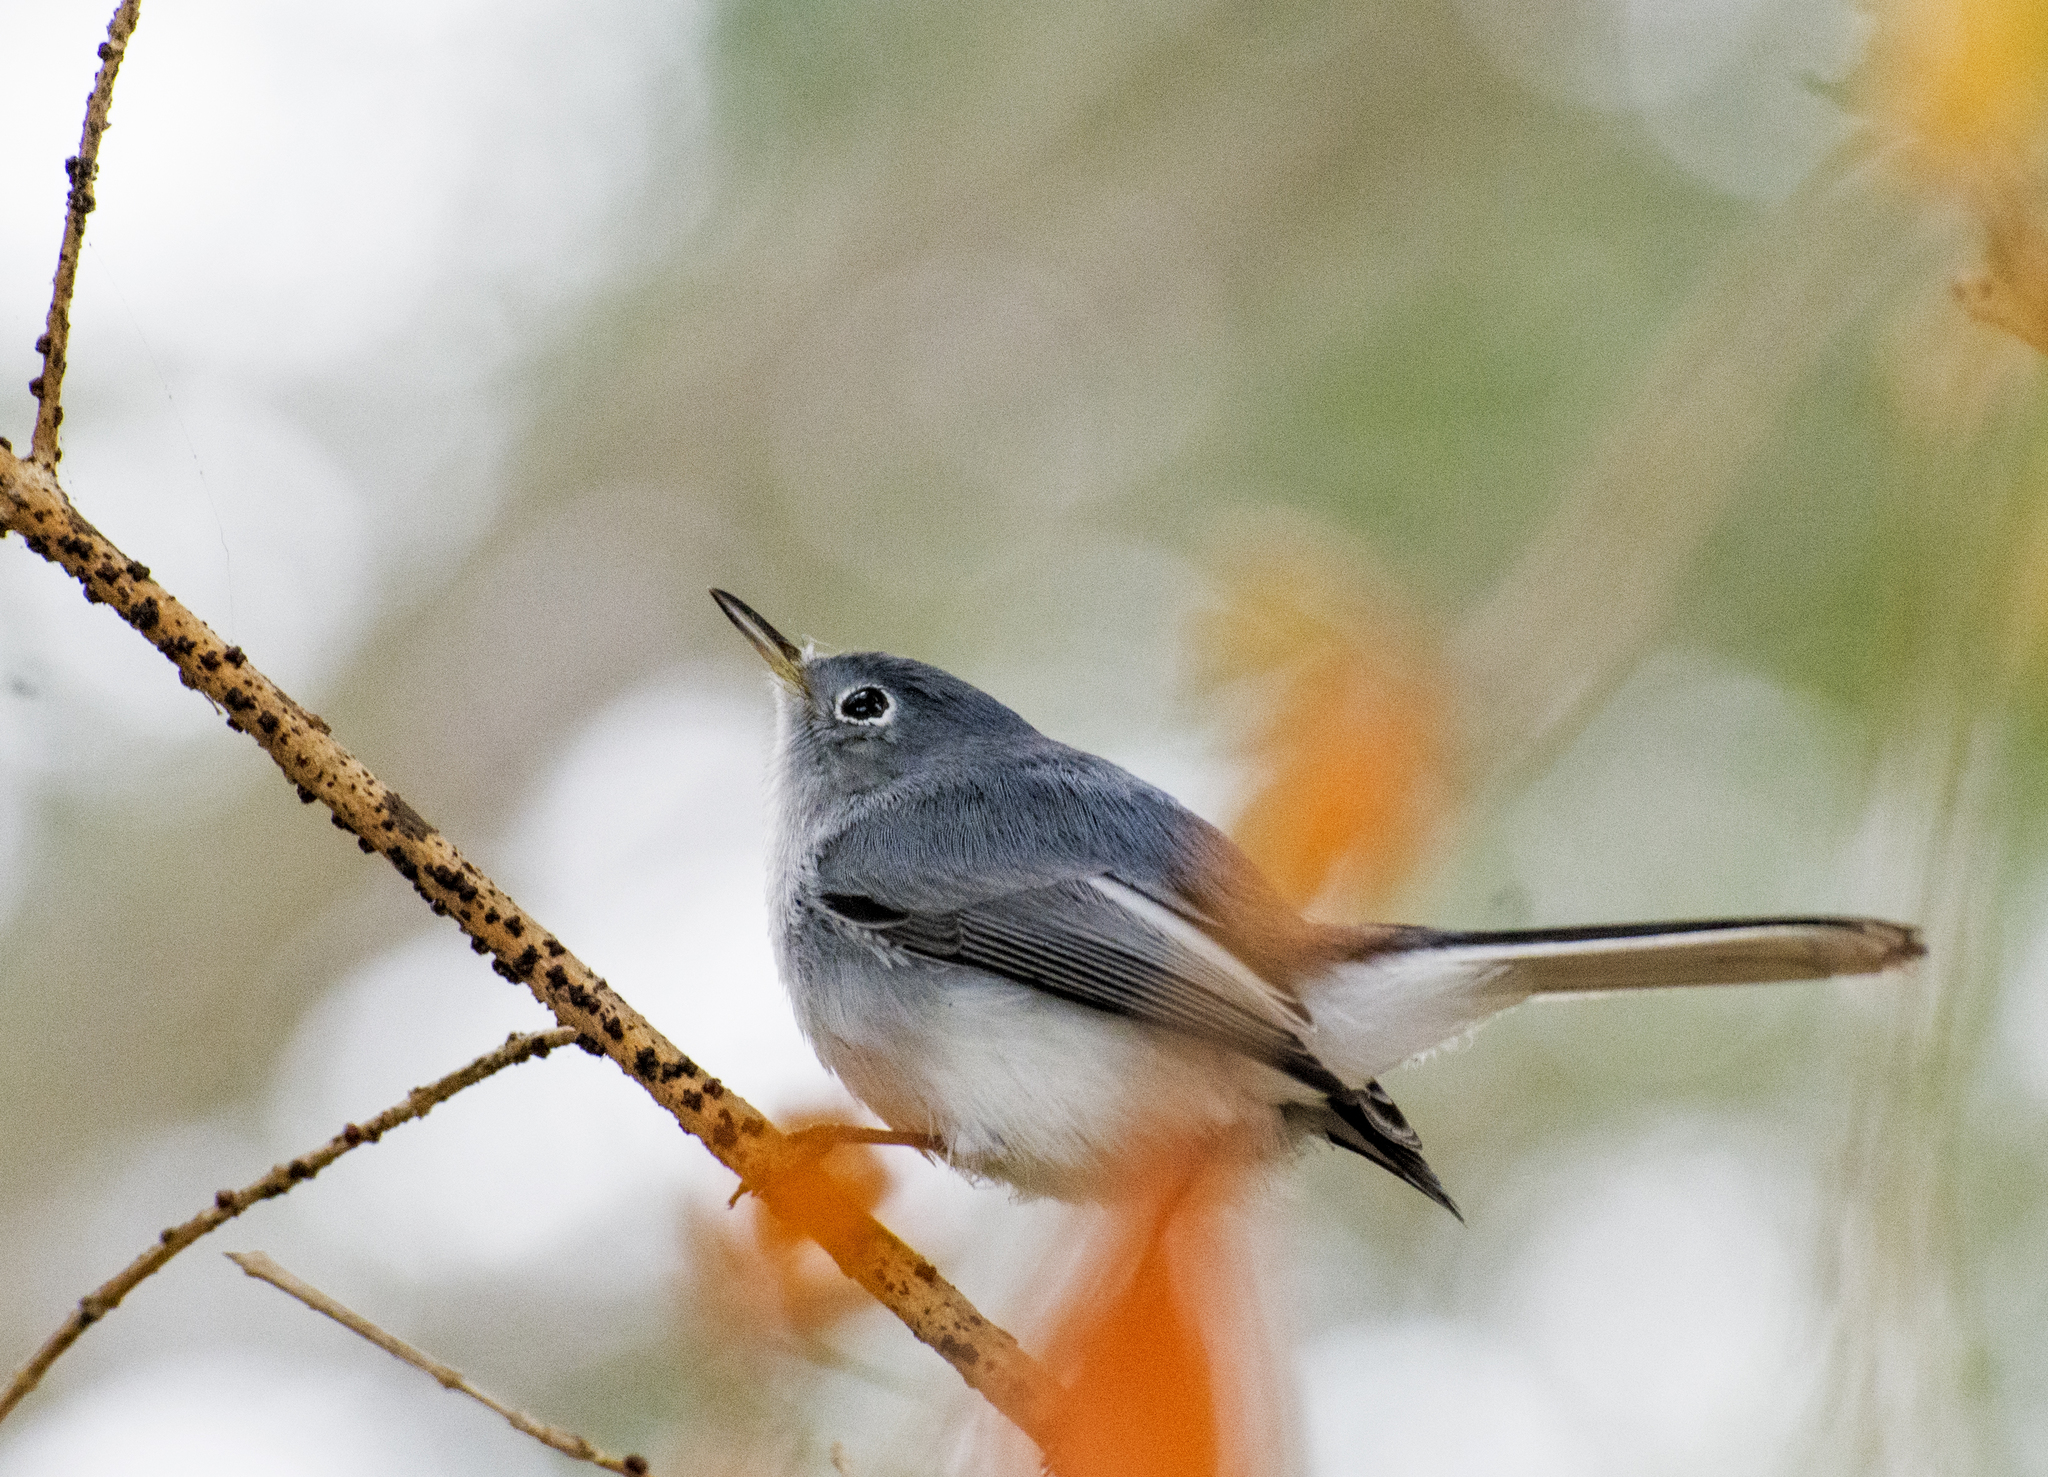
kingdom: Animalia
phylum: Chordata
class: Aves
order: Passeriformes
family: Polioptilidae
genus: Polioptila
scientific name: Polioptila caerulea
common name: Blue-gray gnatcatcher
